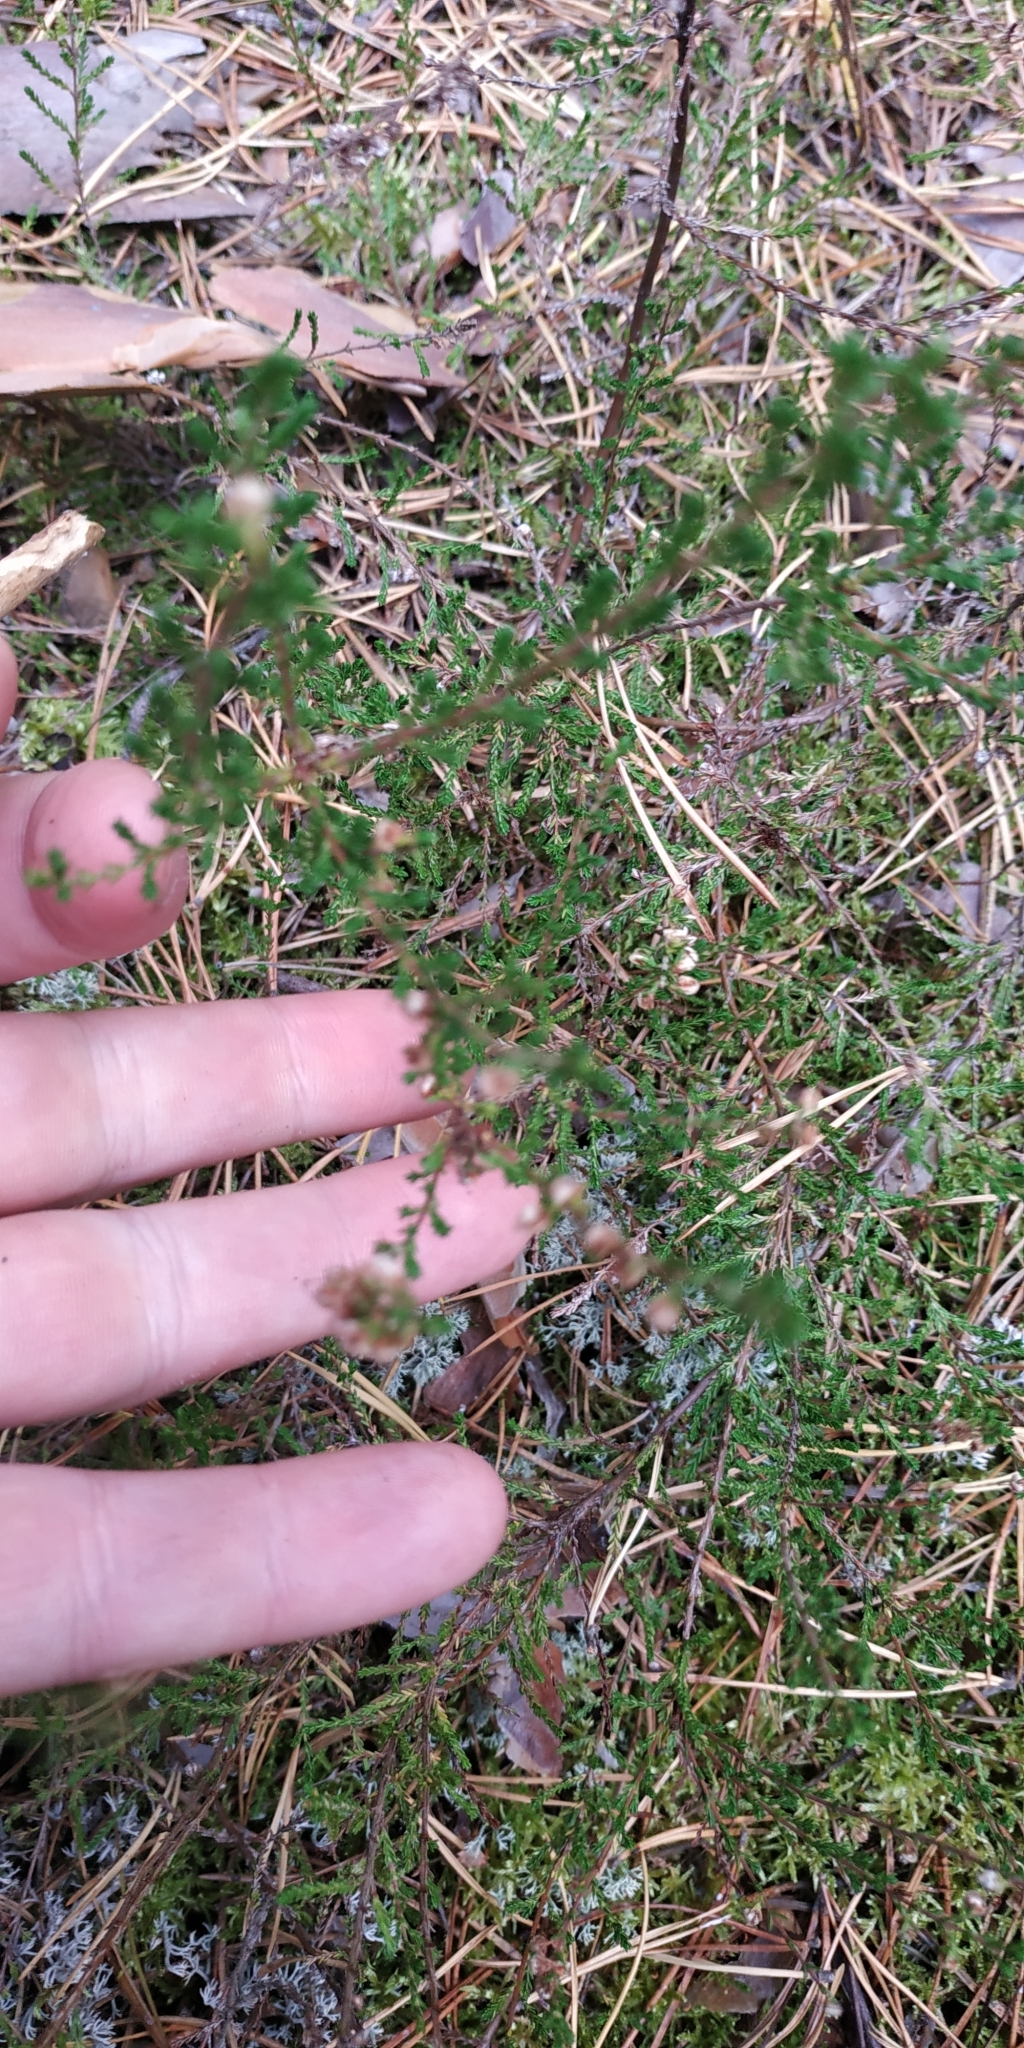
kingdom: Plantae
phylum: Tracheophyta
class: Magnoliopsida
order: Ericales
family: Ericaceae
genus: Calluna
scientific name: Calluna vulgaris
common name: Heather
